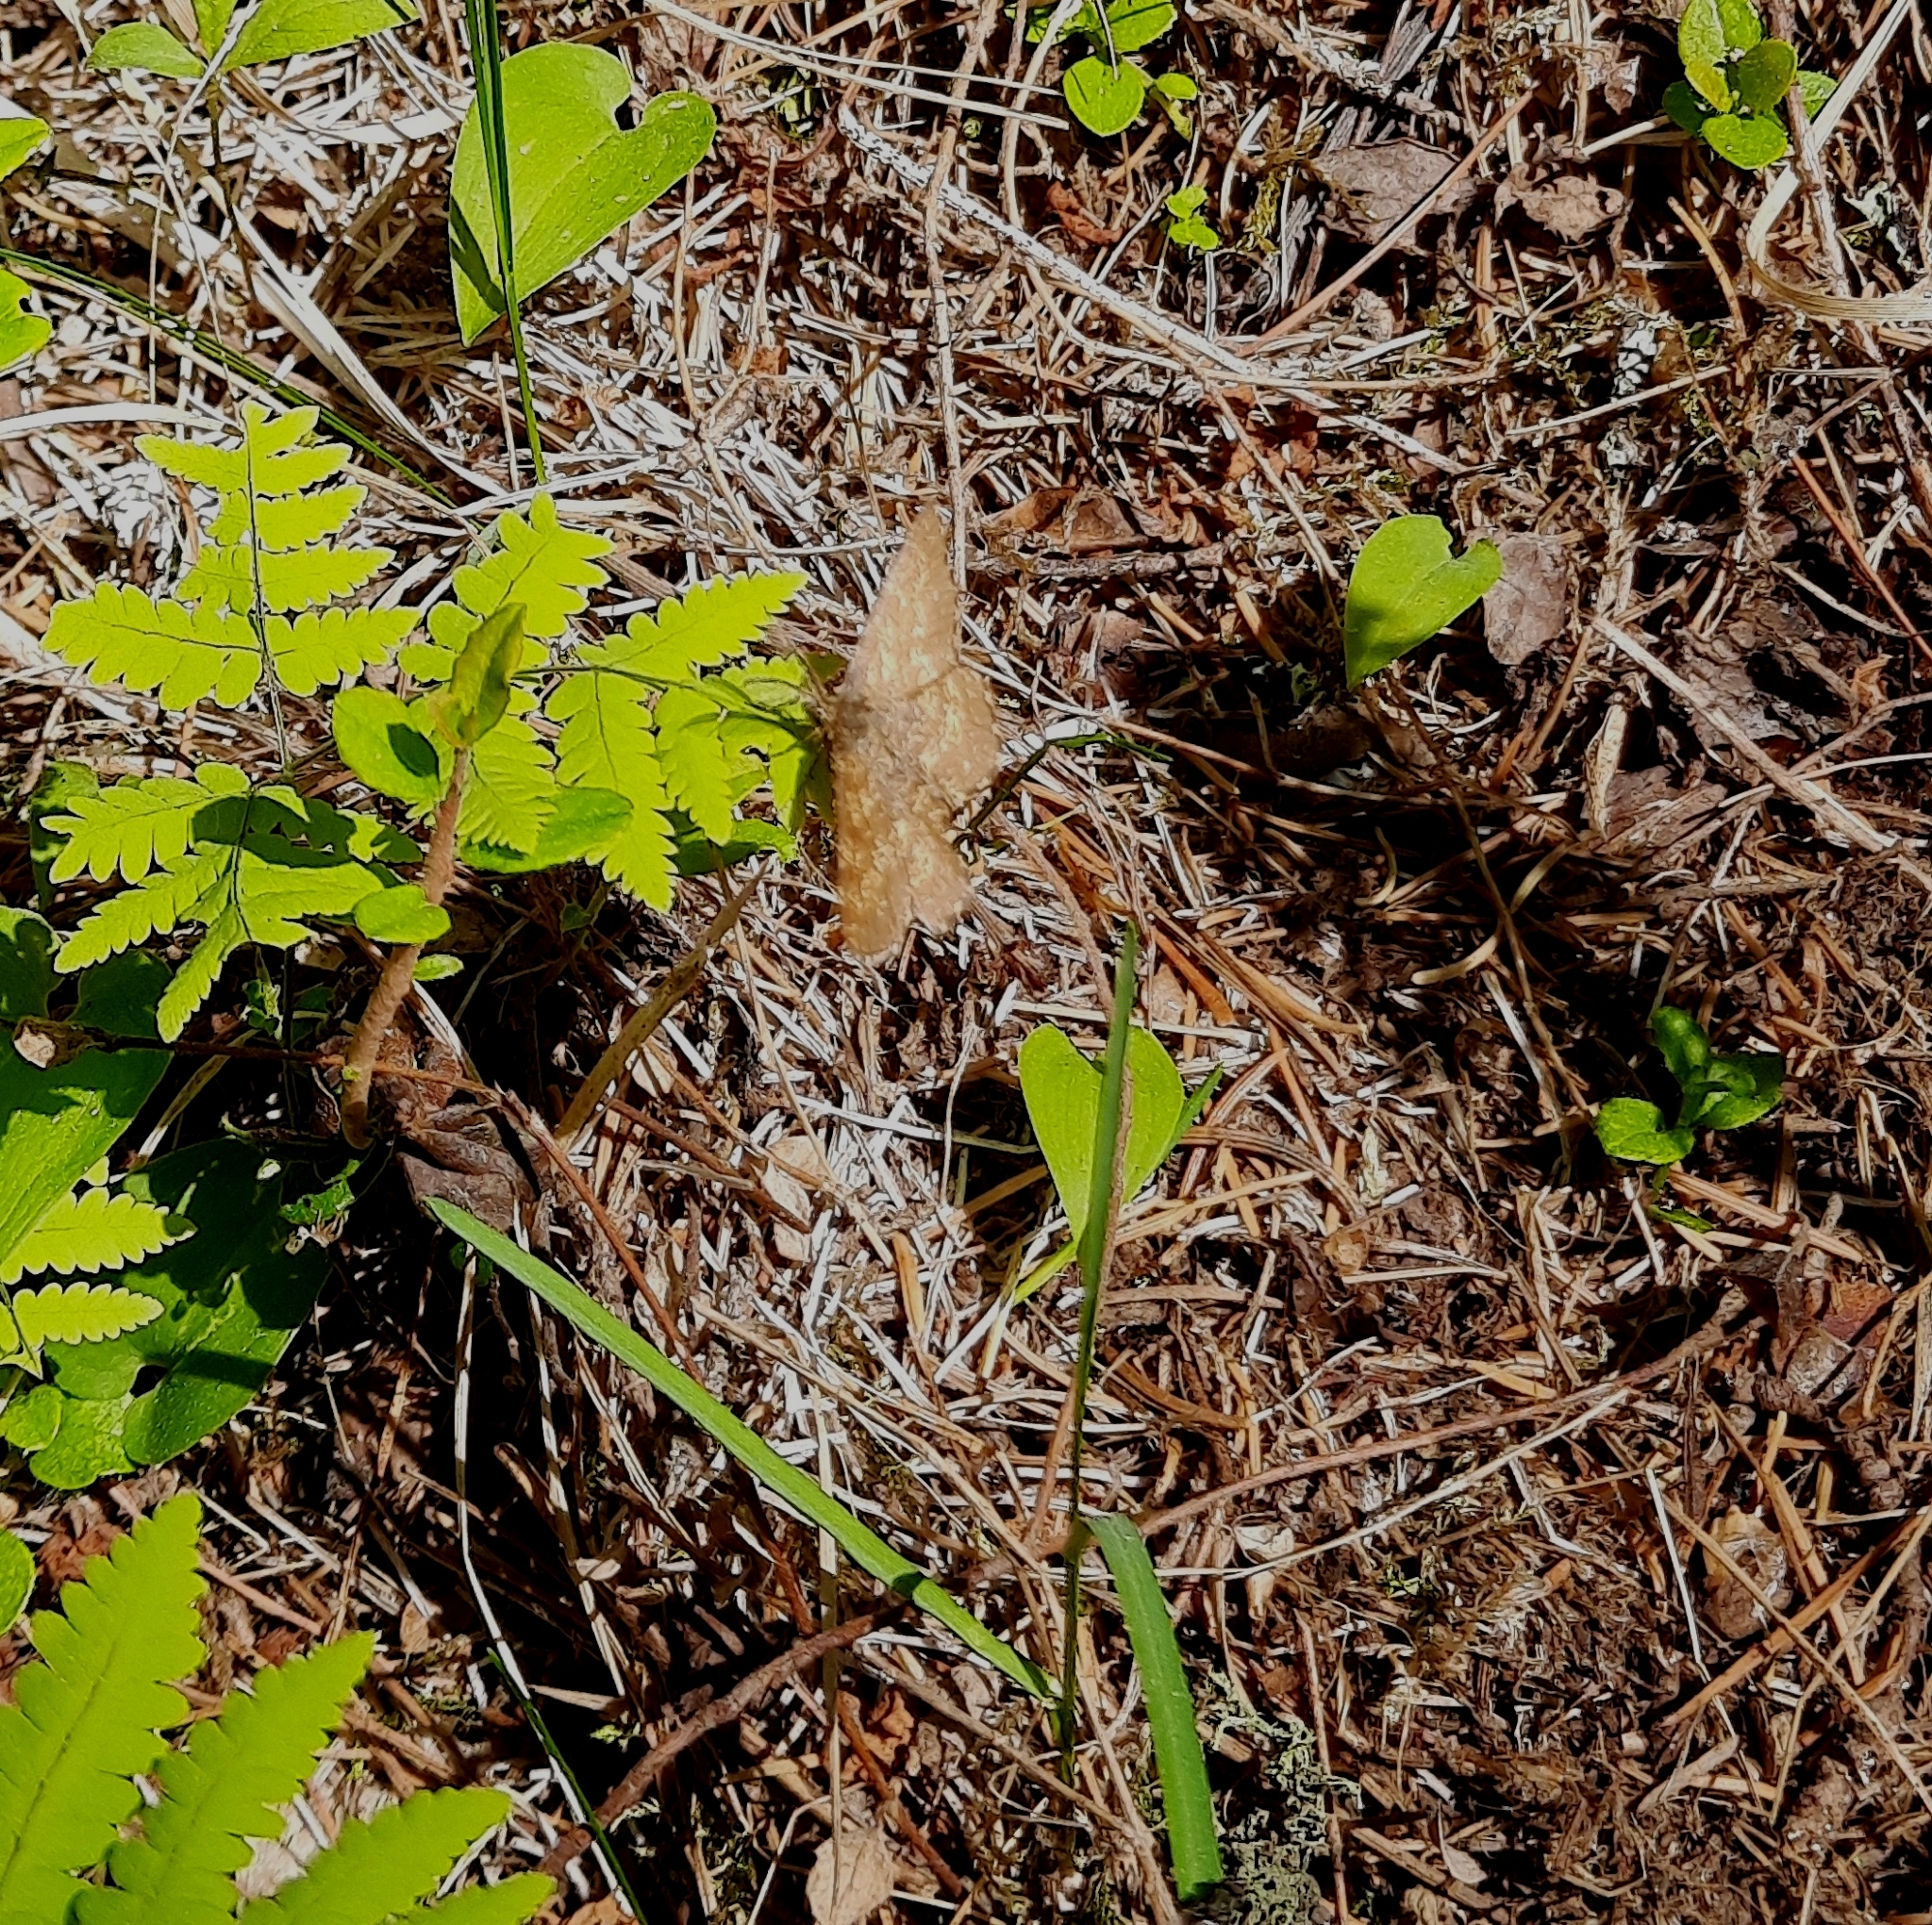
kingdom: Animalia
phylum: Arthropoda
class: Insecta
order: Lepidoptera
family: Geometridae
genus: Ematurga
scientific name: Ematurga atomaria
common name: Common heath
